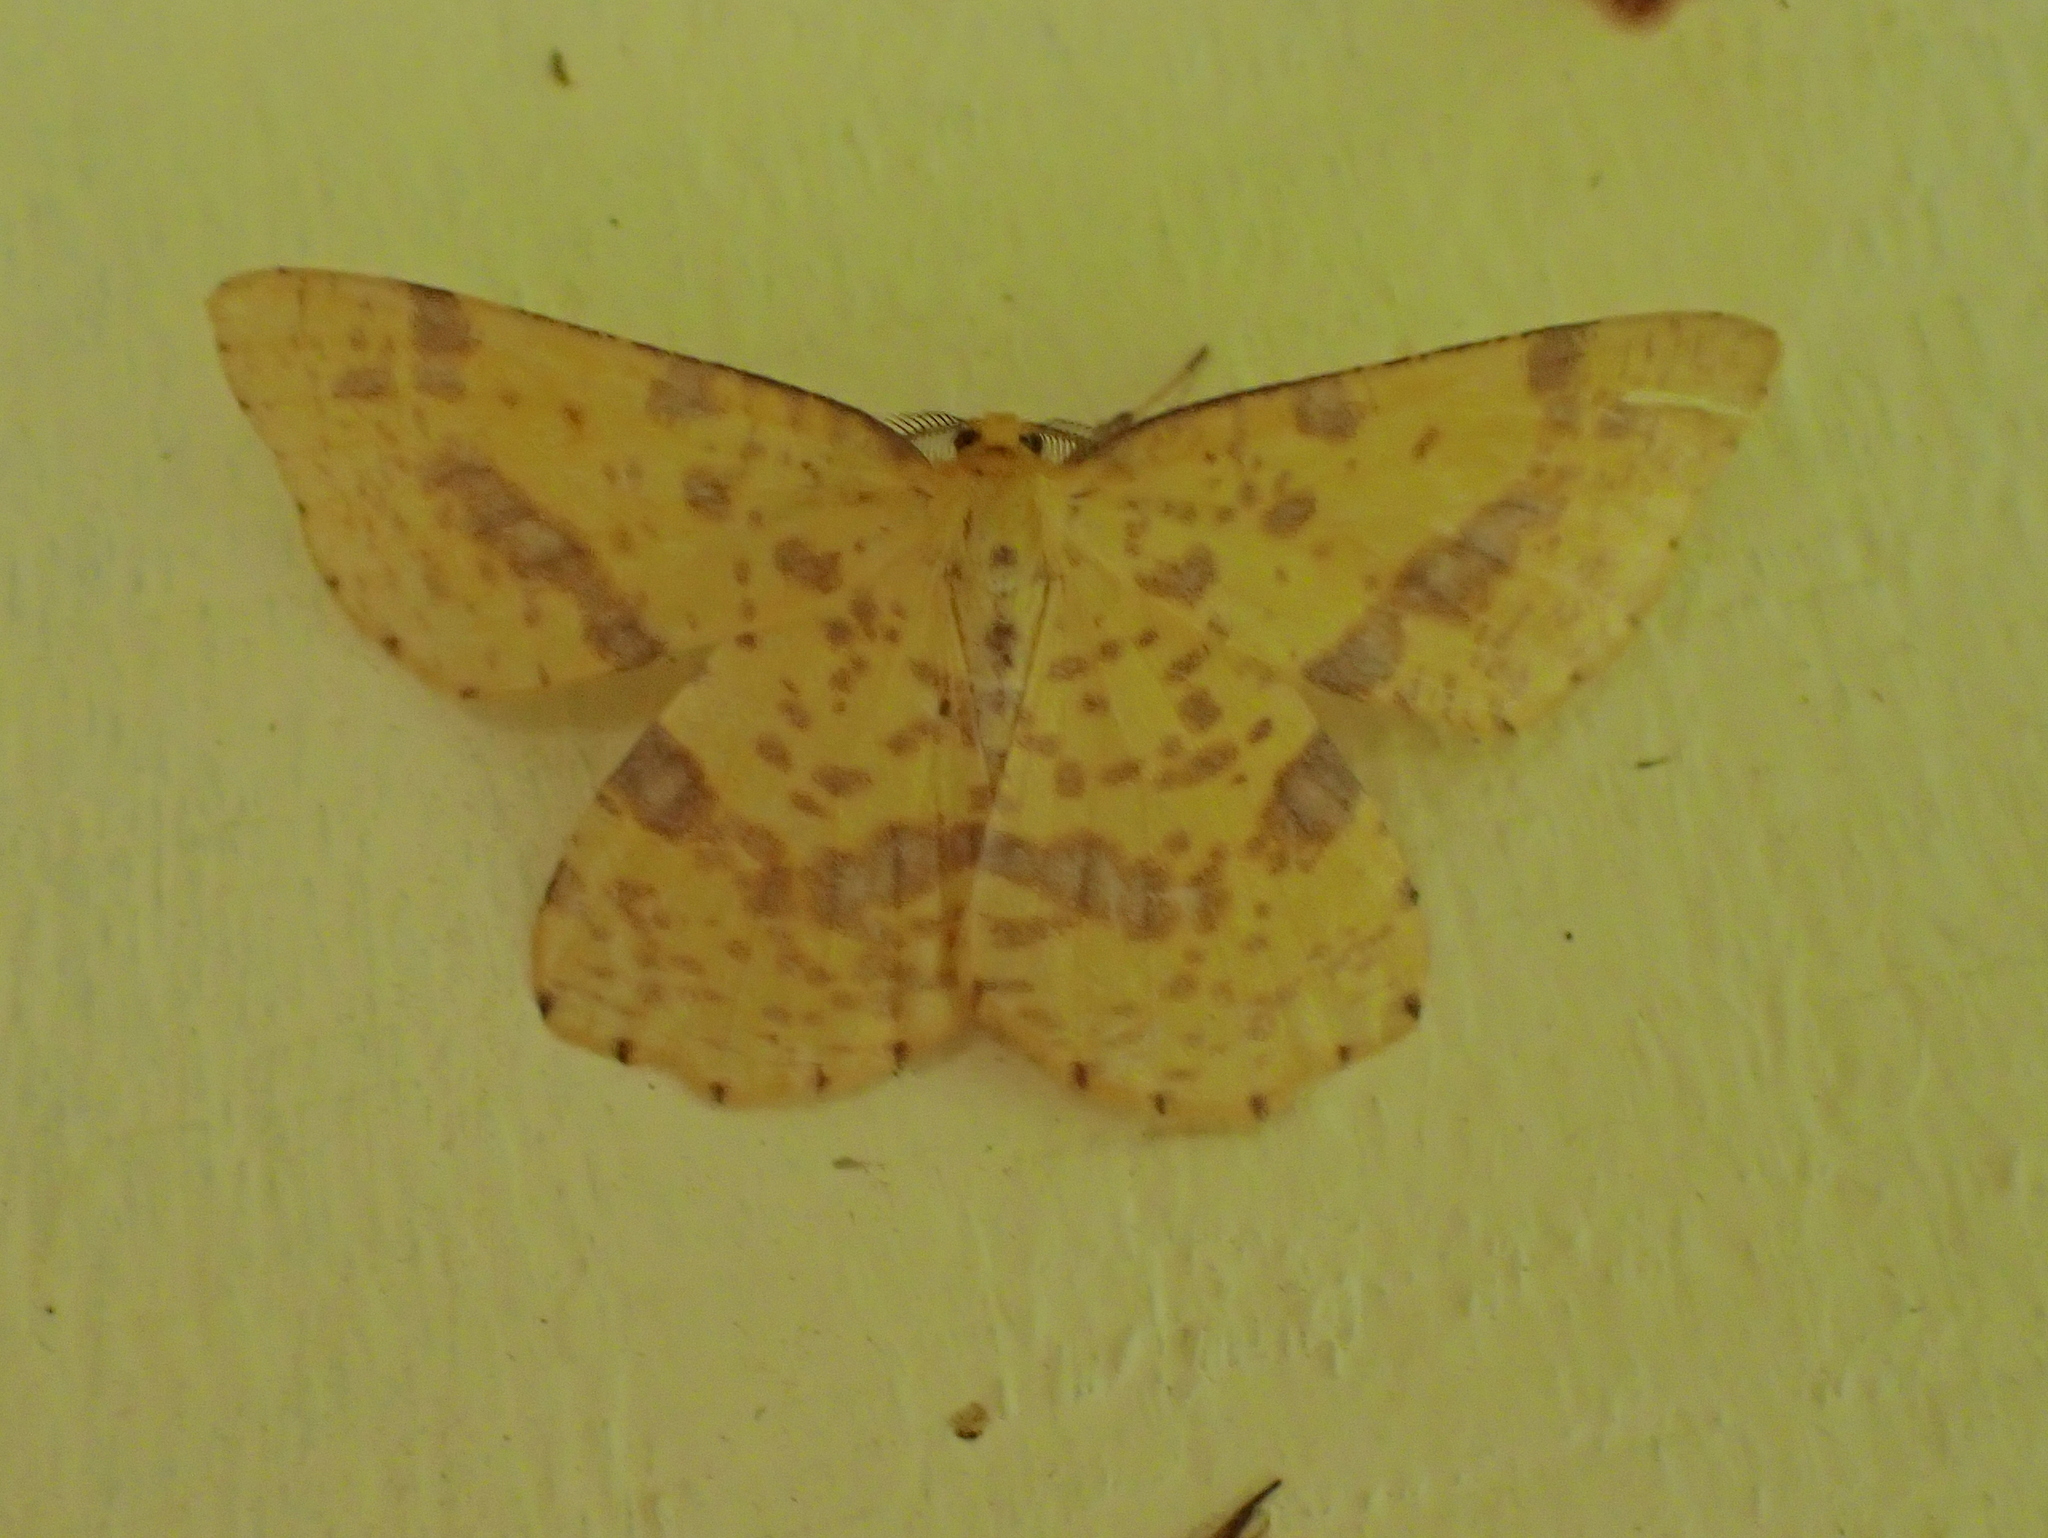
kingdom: Animalia
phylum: Arthropoda
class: Insecta
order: Lepidoptera
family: Geometridae
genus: Xanthotype
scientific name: Xanthotype
